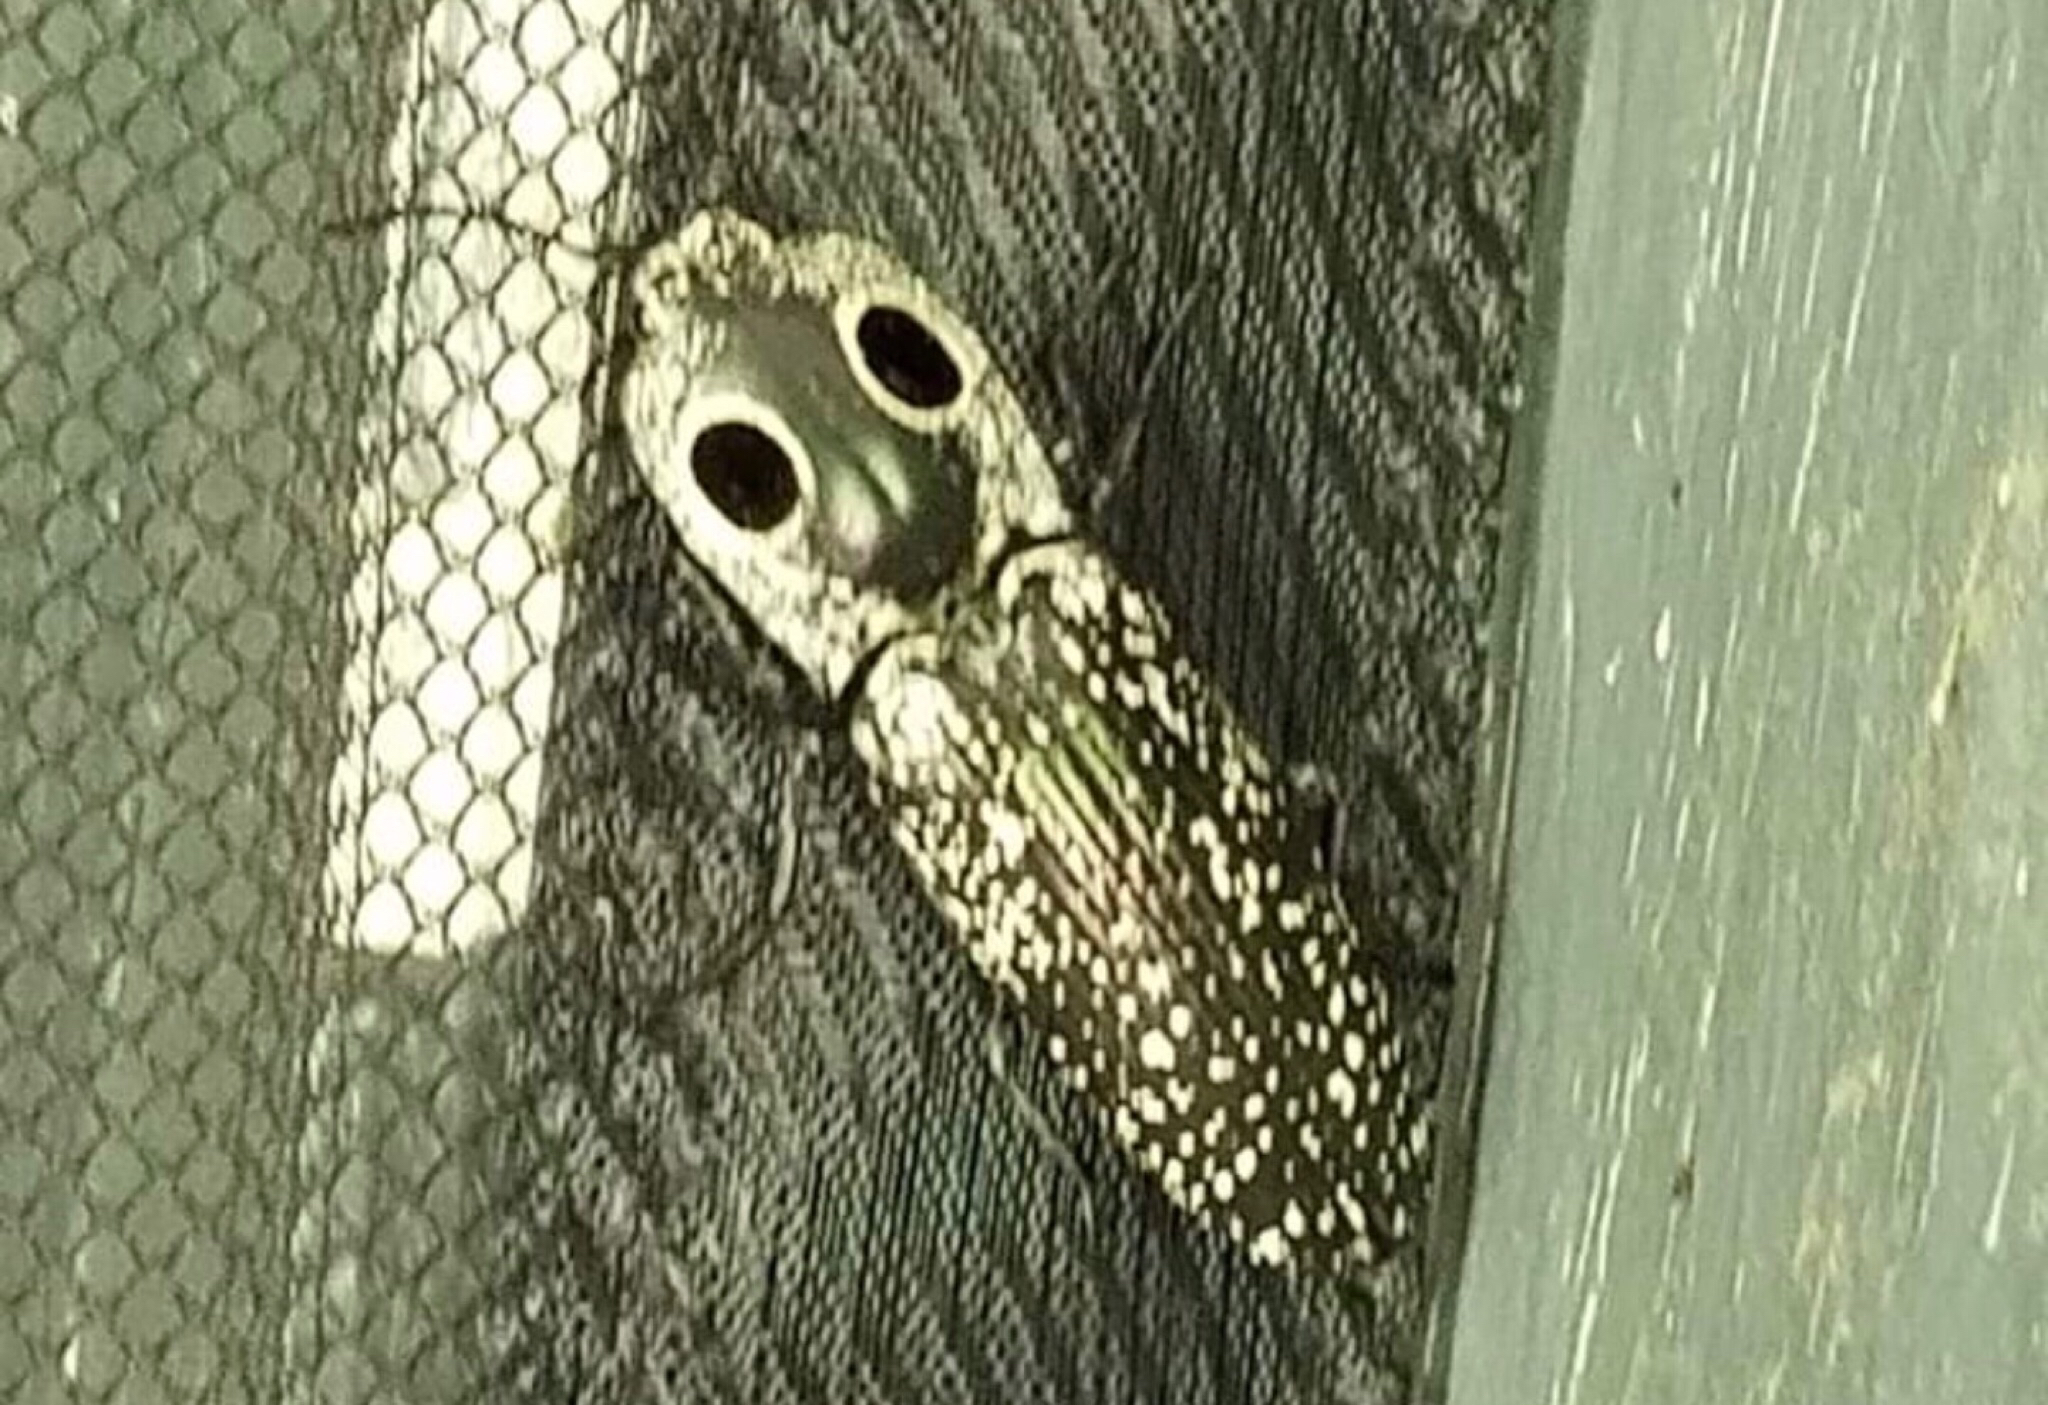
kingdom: Animalia
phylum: Arthropoda
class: Insecta
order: Coleoptera
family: Elateridae
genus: Alaus
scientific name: Alaus oculatus
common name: Eastern eyed click beetle
